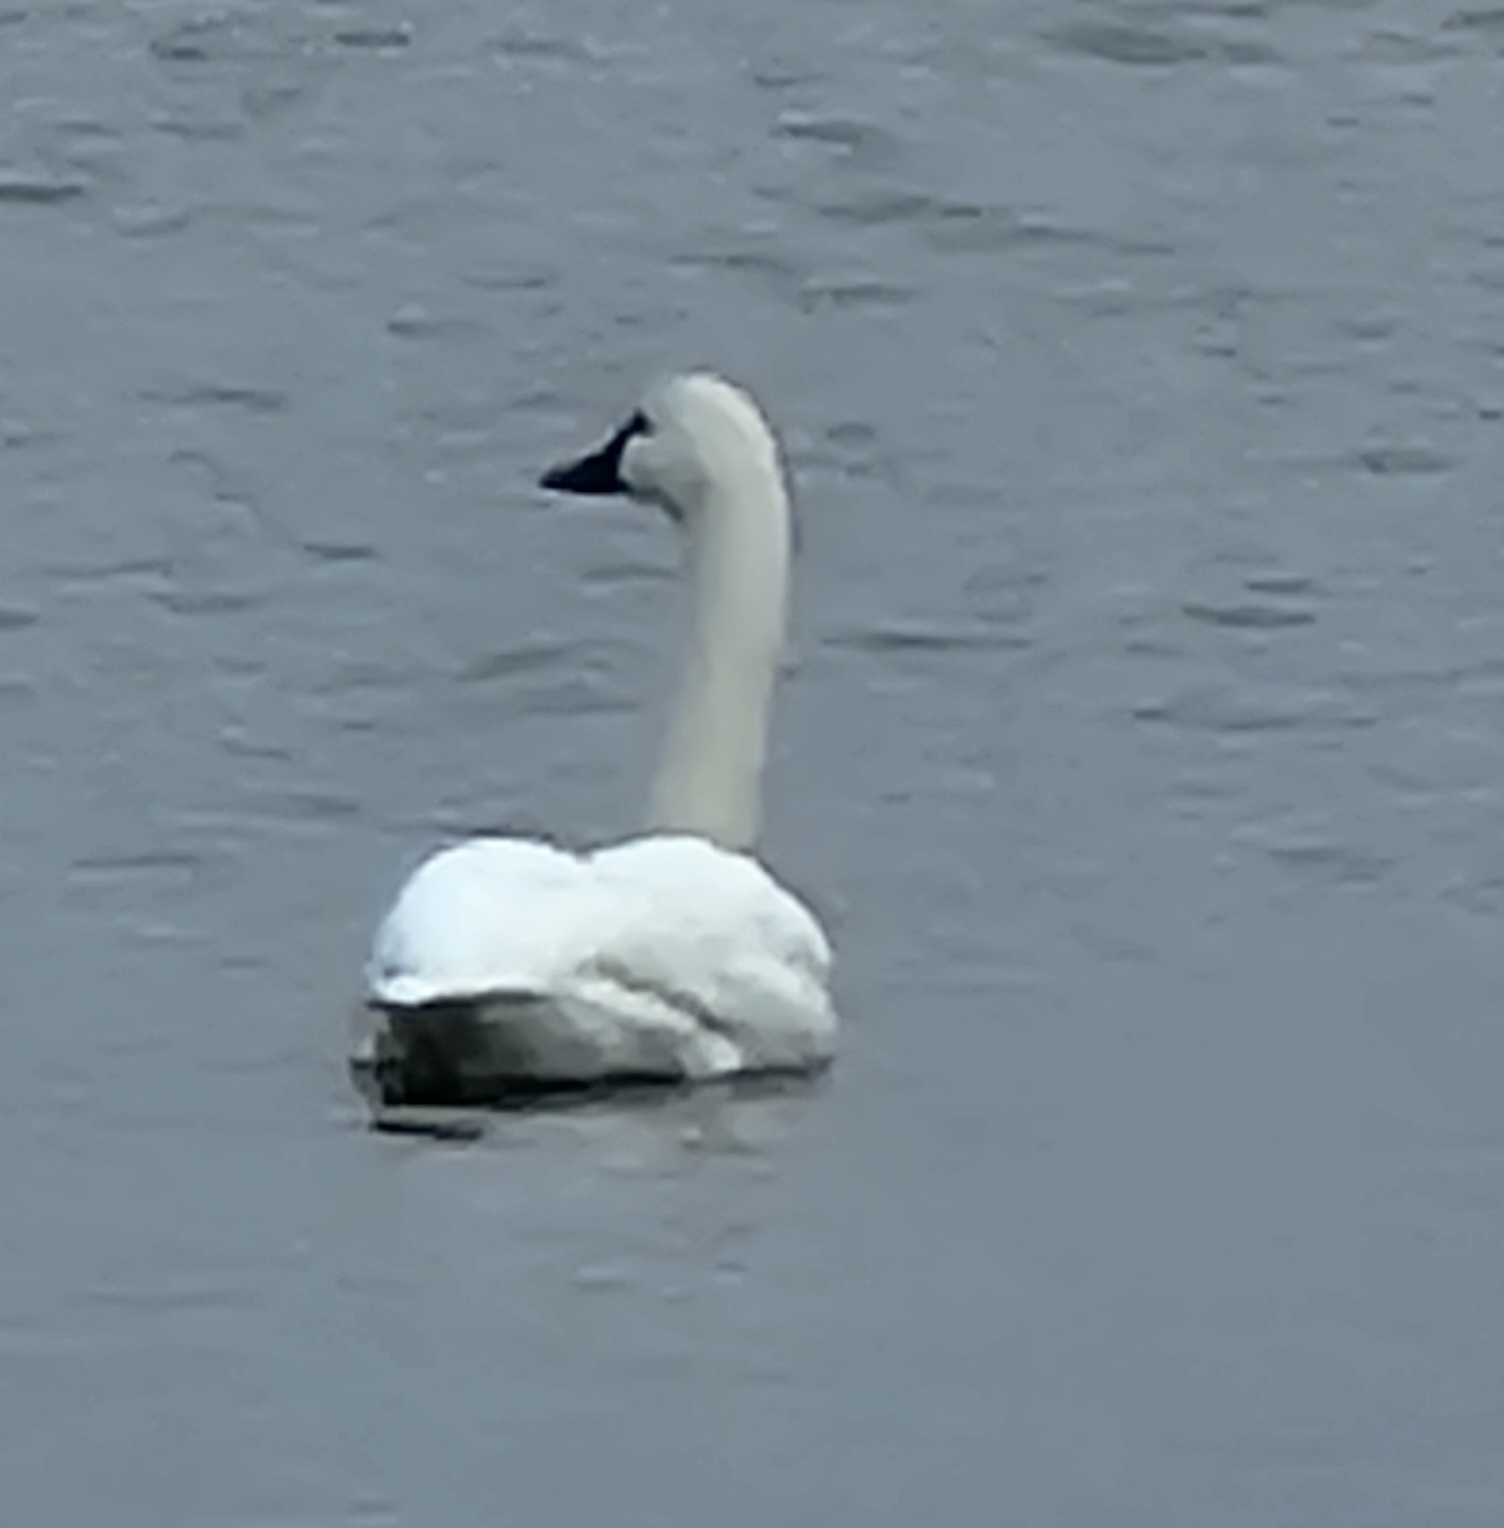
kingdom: Animalia
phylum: Chordata
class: Aves
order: Anseriformes
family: Anatidae
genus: Cygnus
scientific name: Cygnus columbianus
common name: Tundra swan
